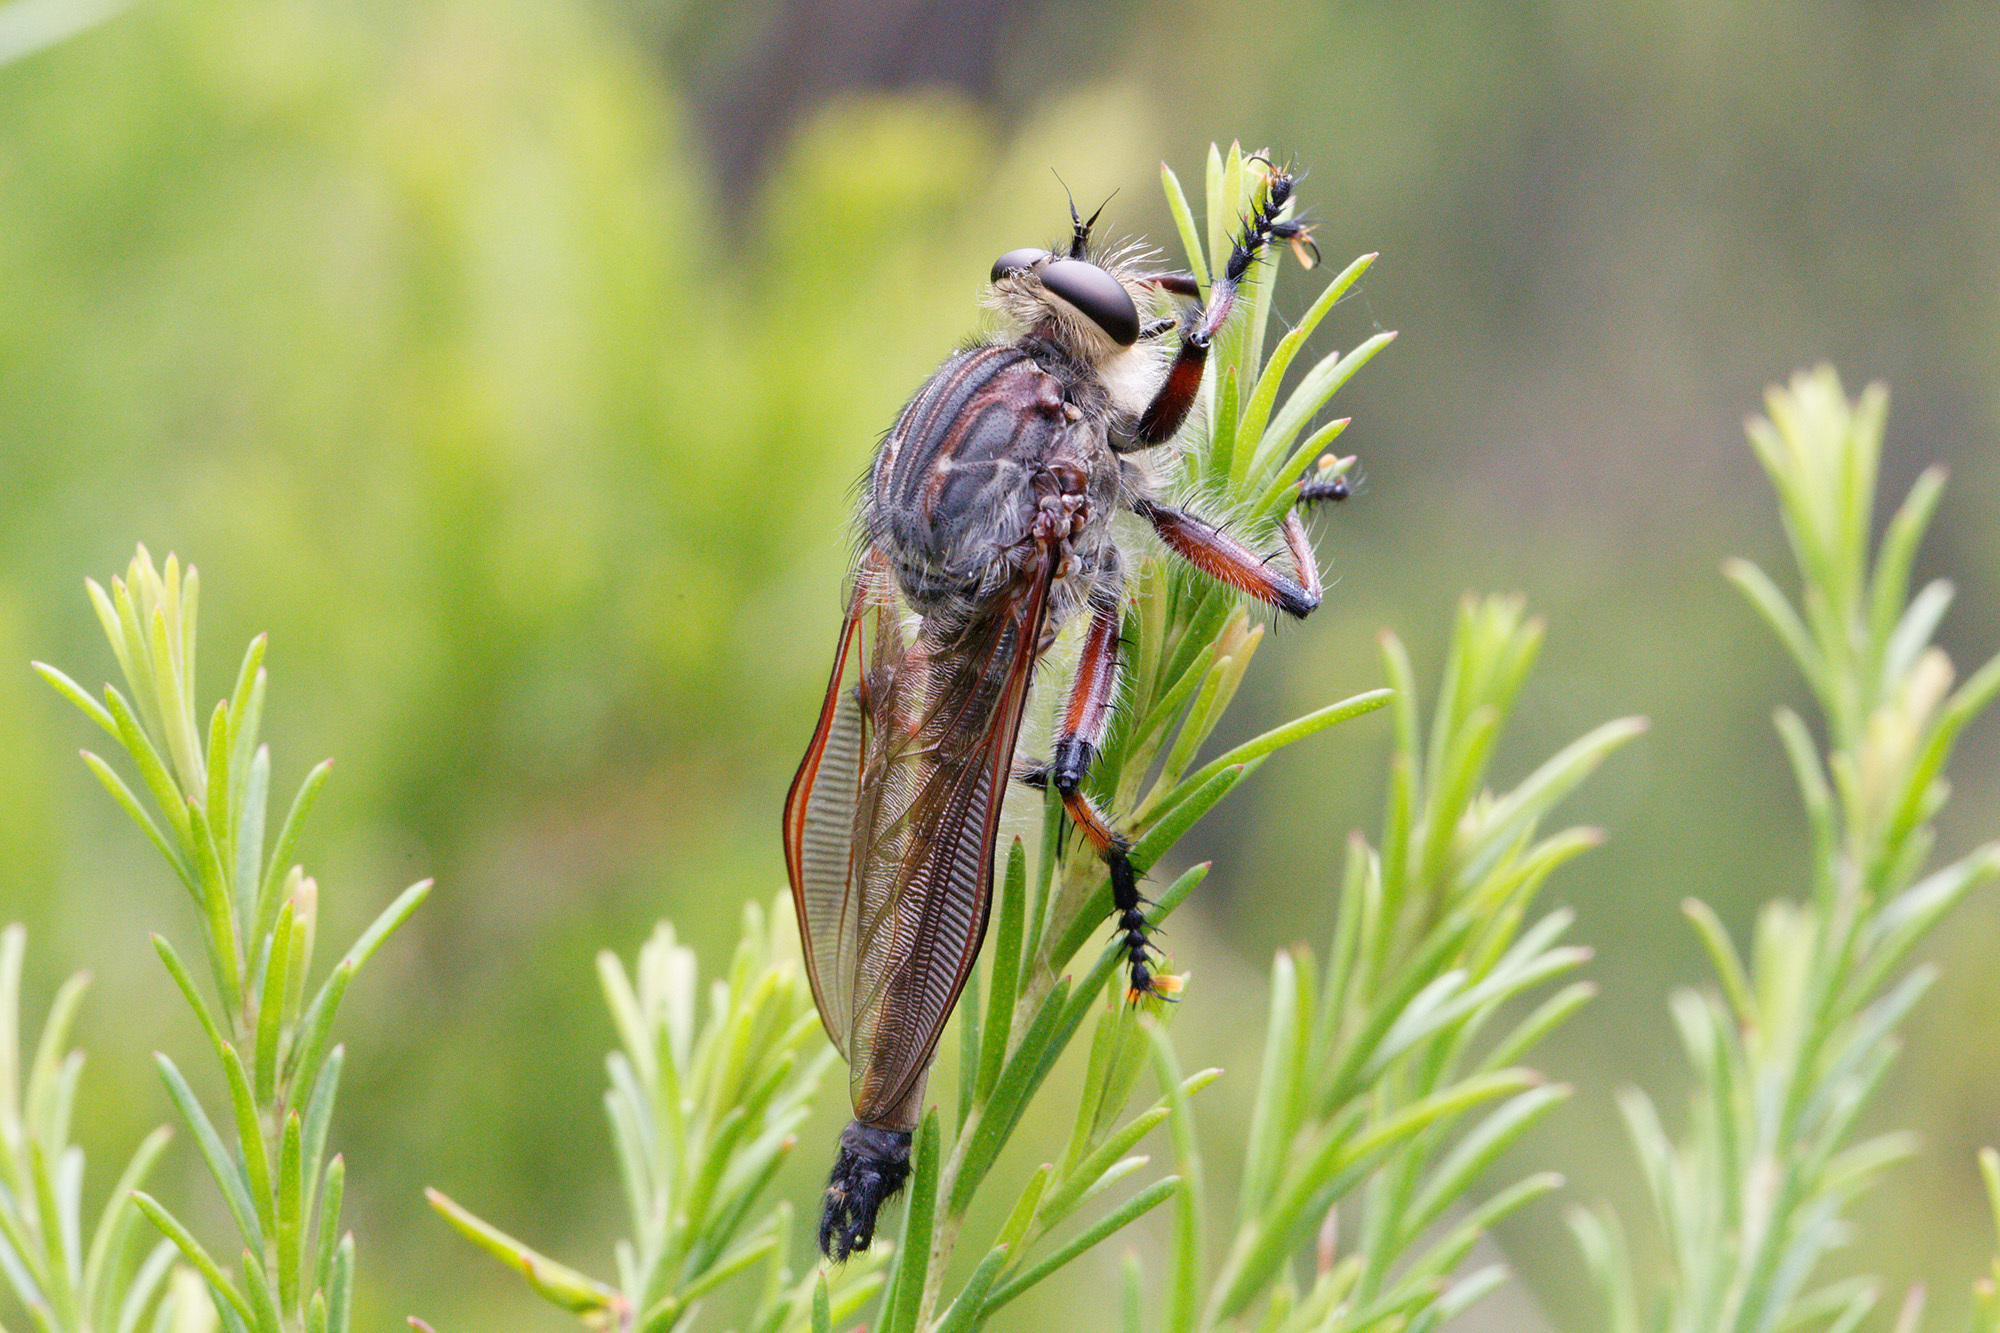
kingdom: Animalia
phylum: Arthropoda
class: Insecta
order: Diptera
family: Asilidae
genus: Neoaratus
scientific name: Neoaratus hercules
